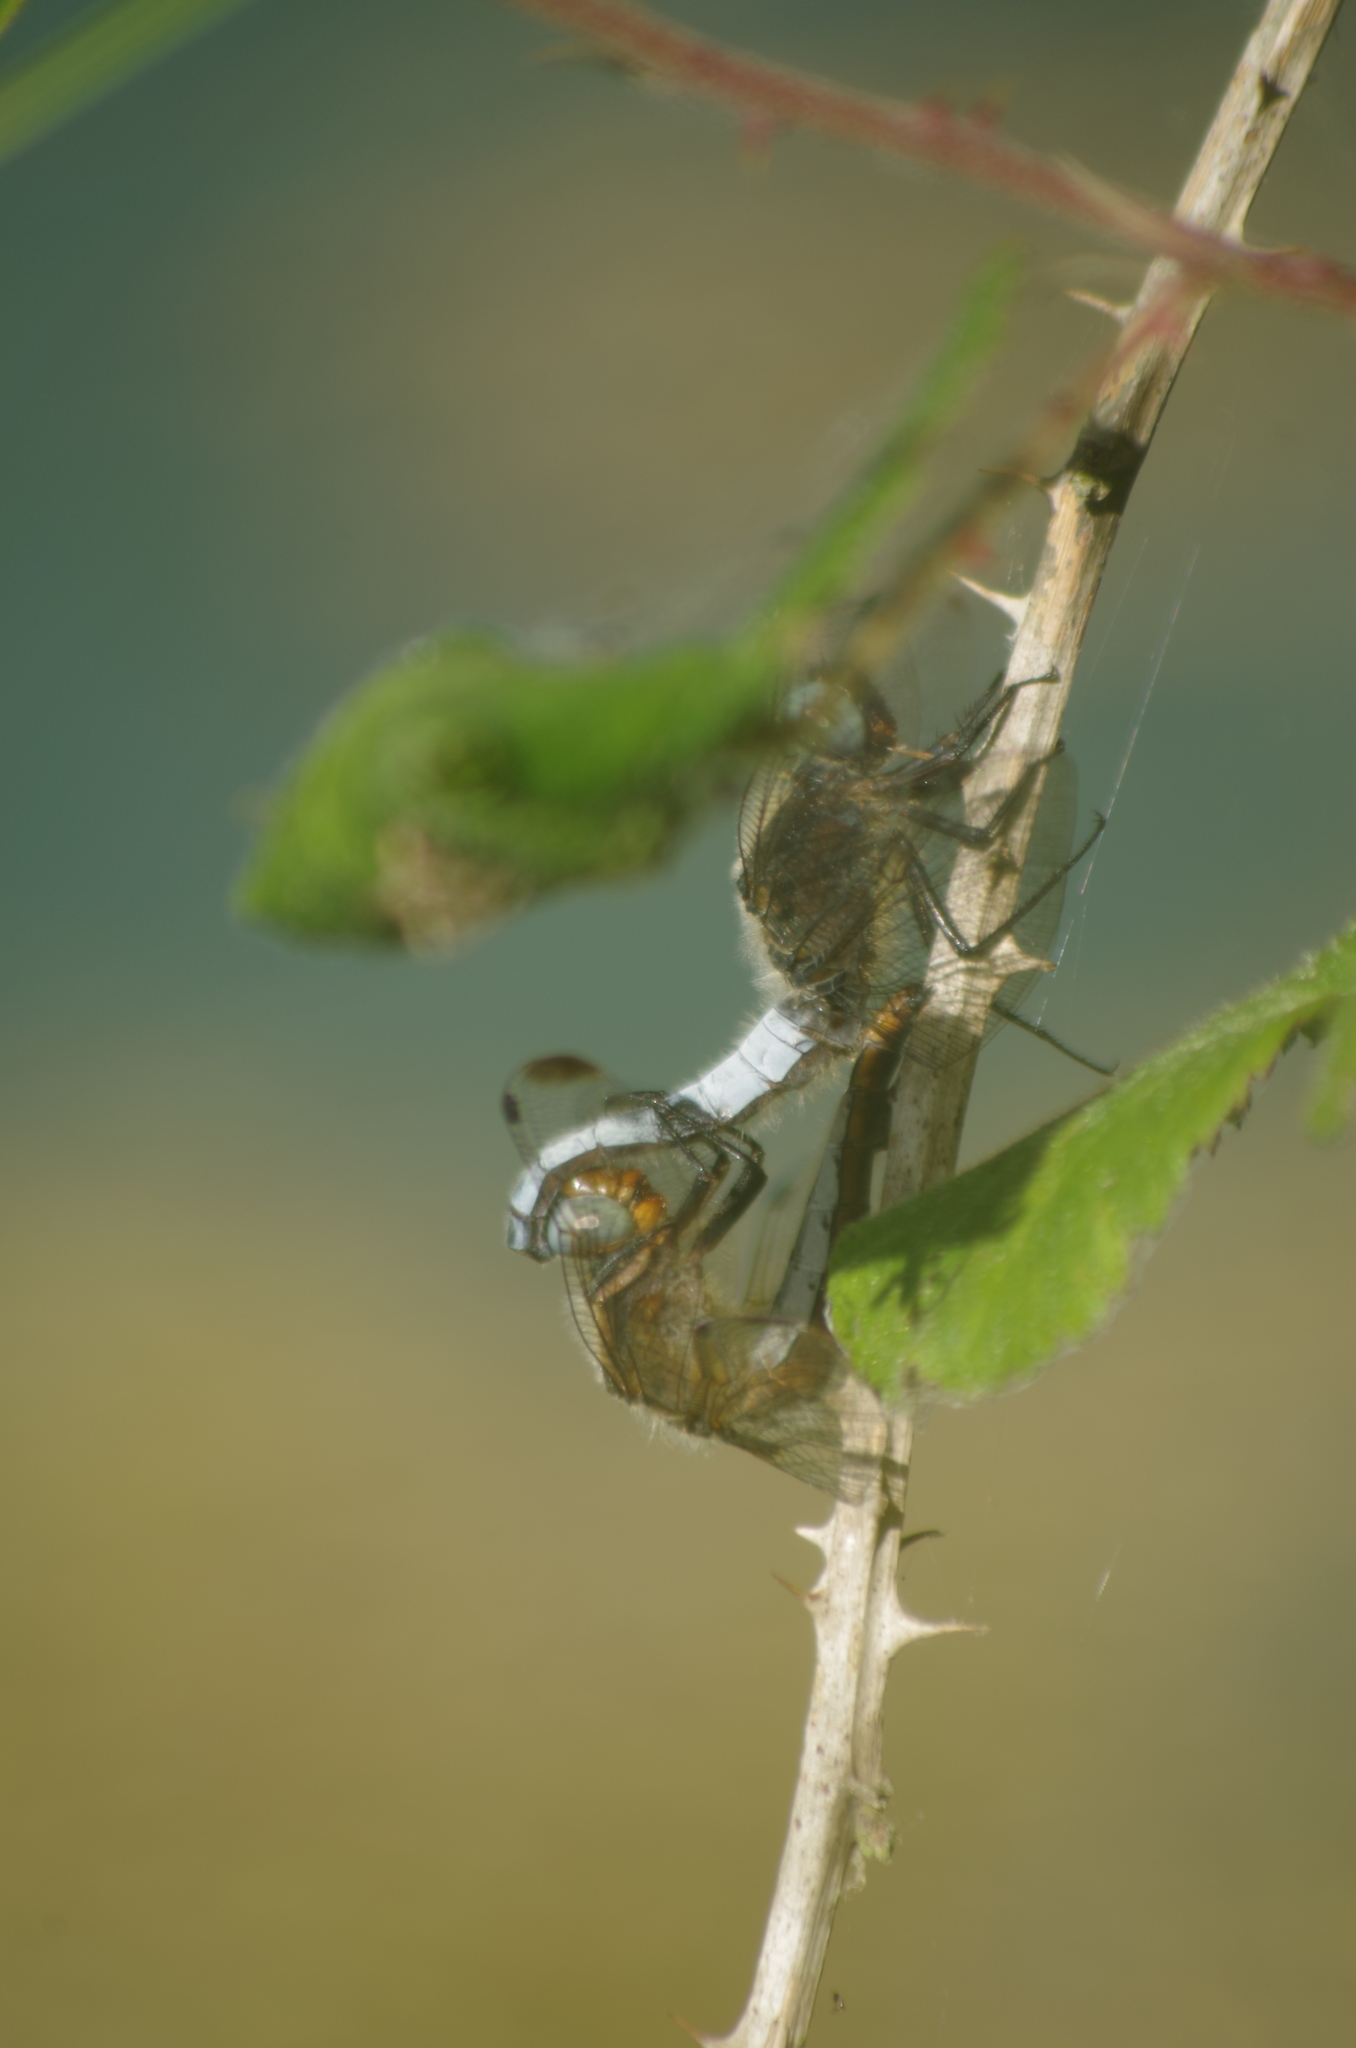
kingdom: Animalia
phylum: Arthropoda
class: Insecta
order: Odonata
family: Libellulidae
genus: Libellula
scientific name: Libellula fulva
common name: Blue chaser
